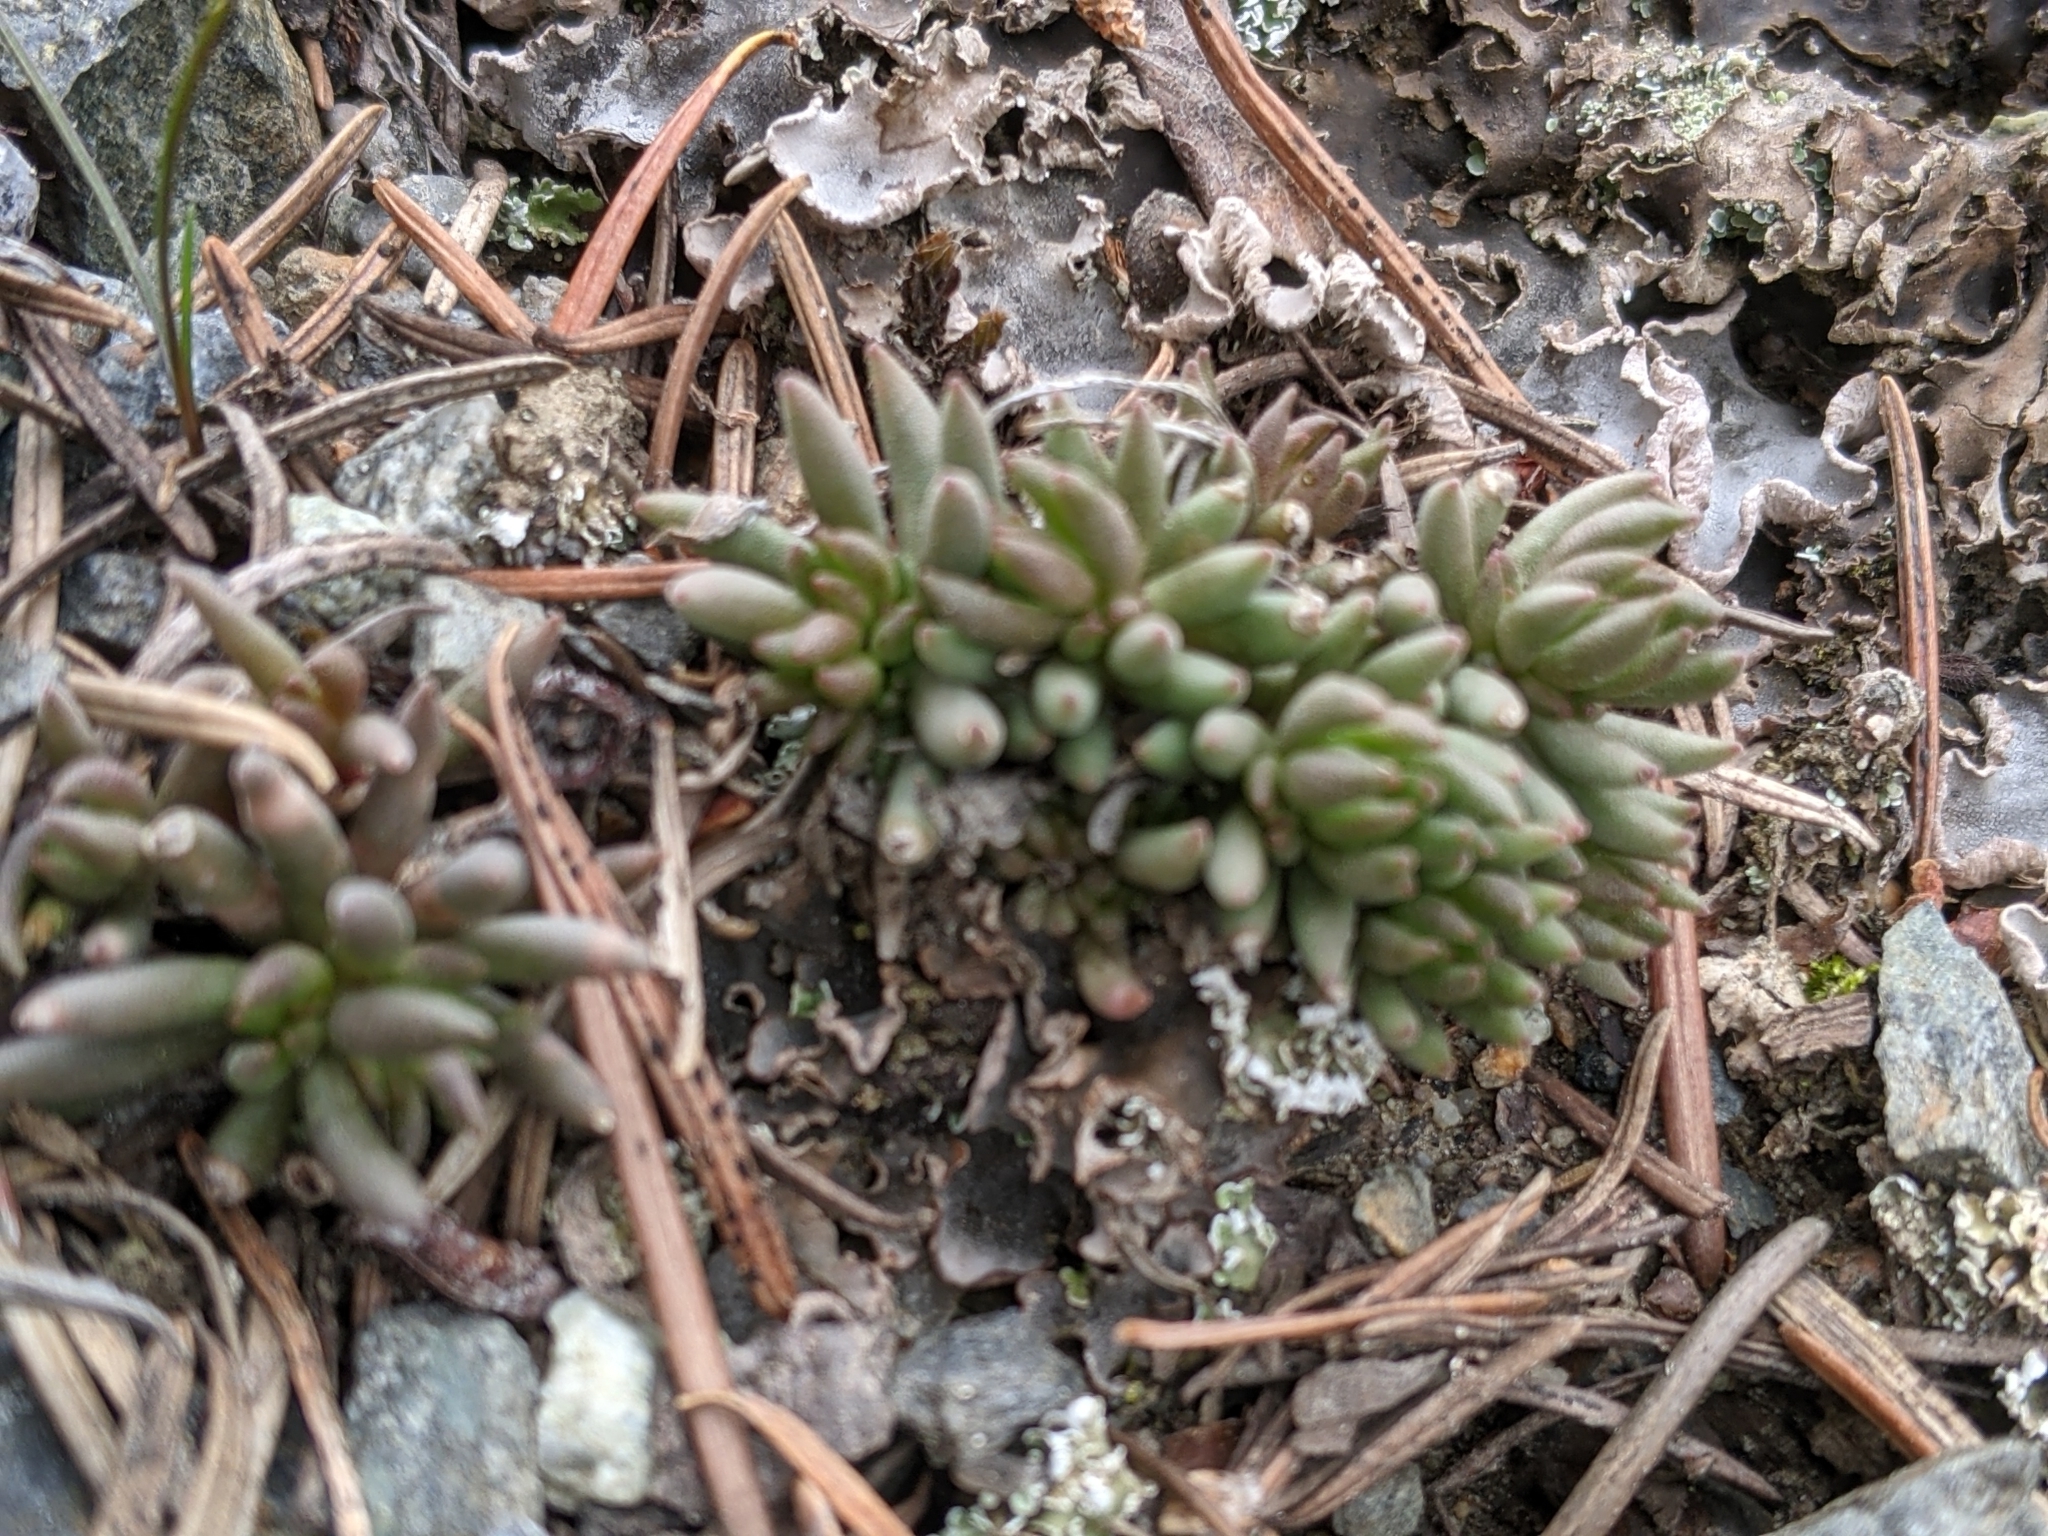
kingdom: Plantae
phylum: Tracheophyta
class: Magnoliopsida
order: Saxifragales
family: Crassulaceae
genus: Sedum
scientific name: Sedum lanceolatum
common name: Common stonecrop
